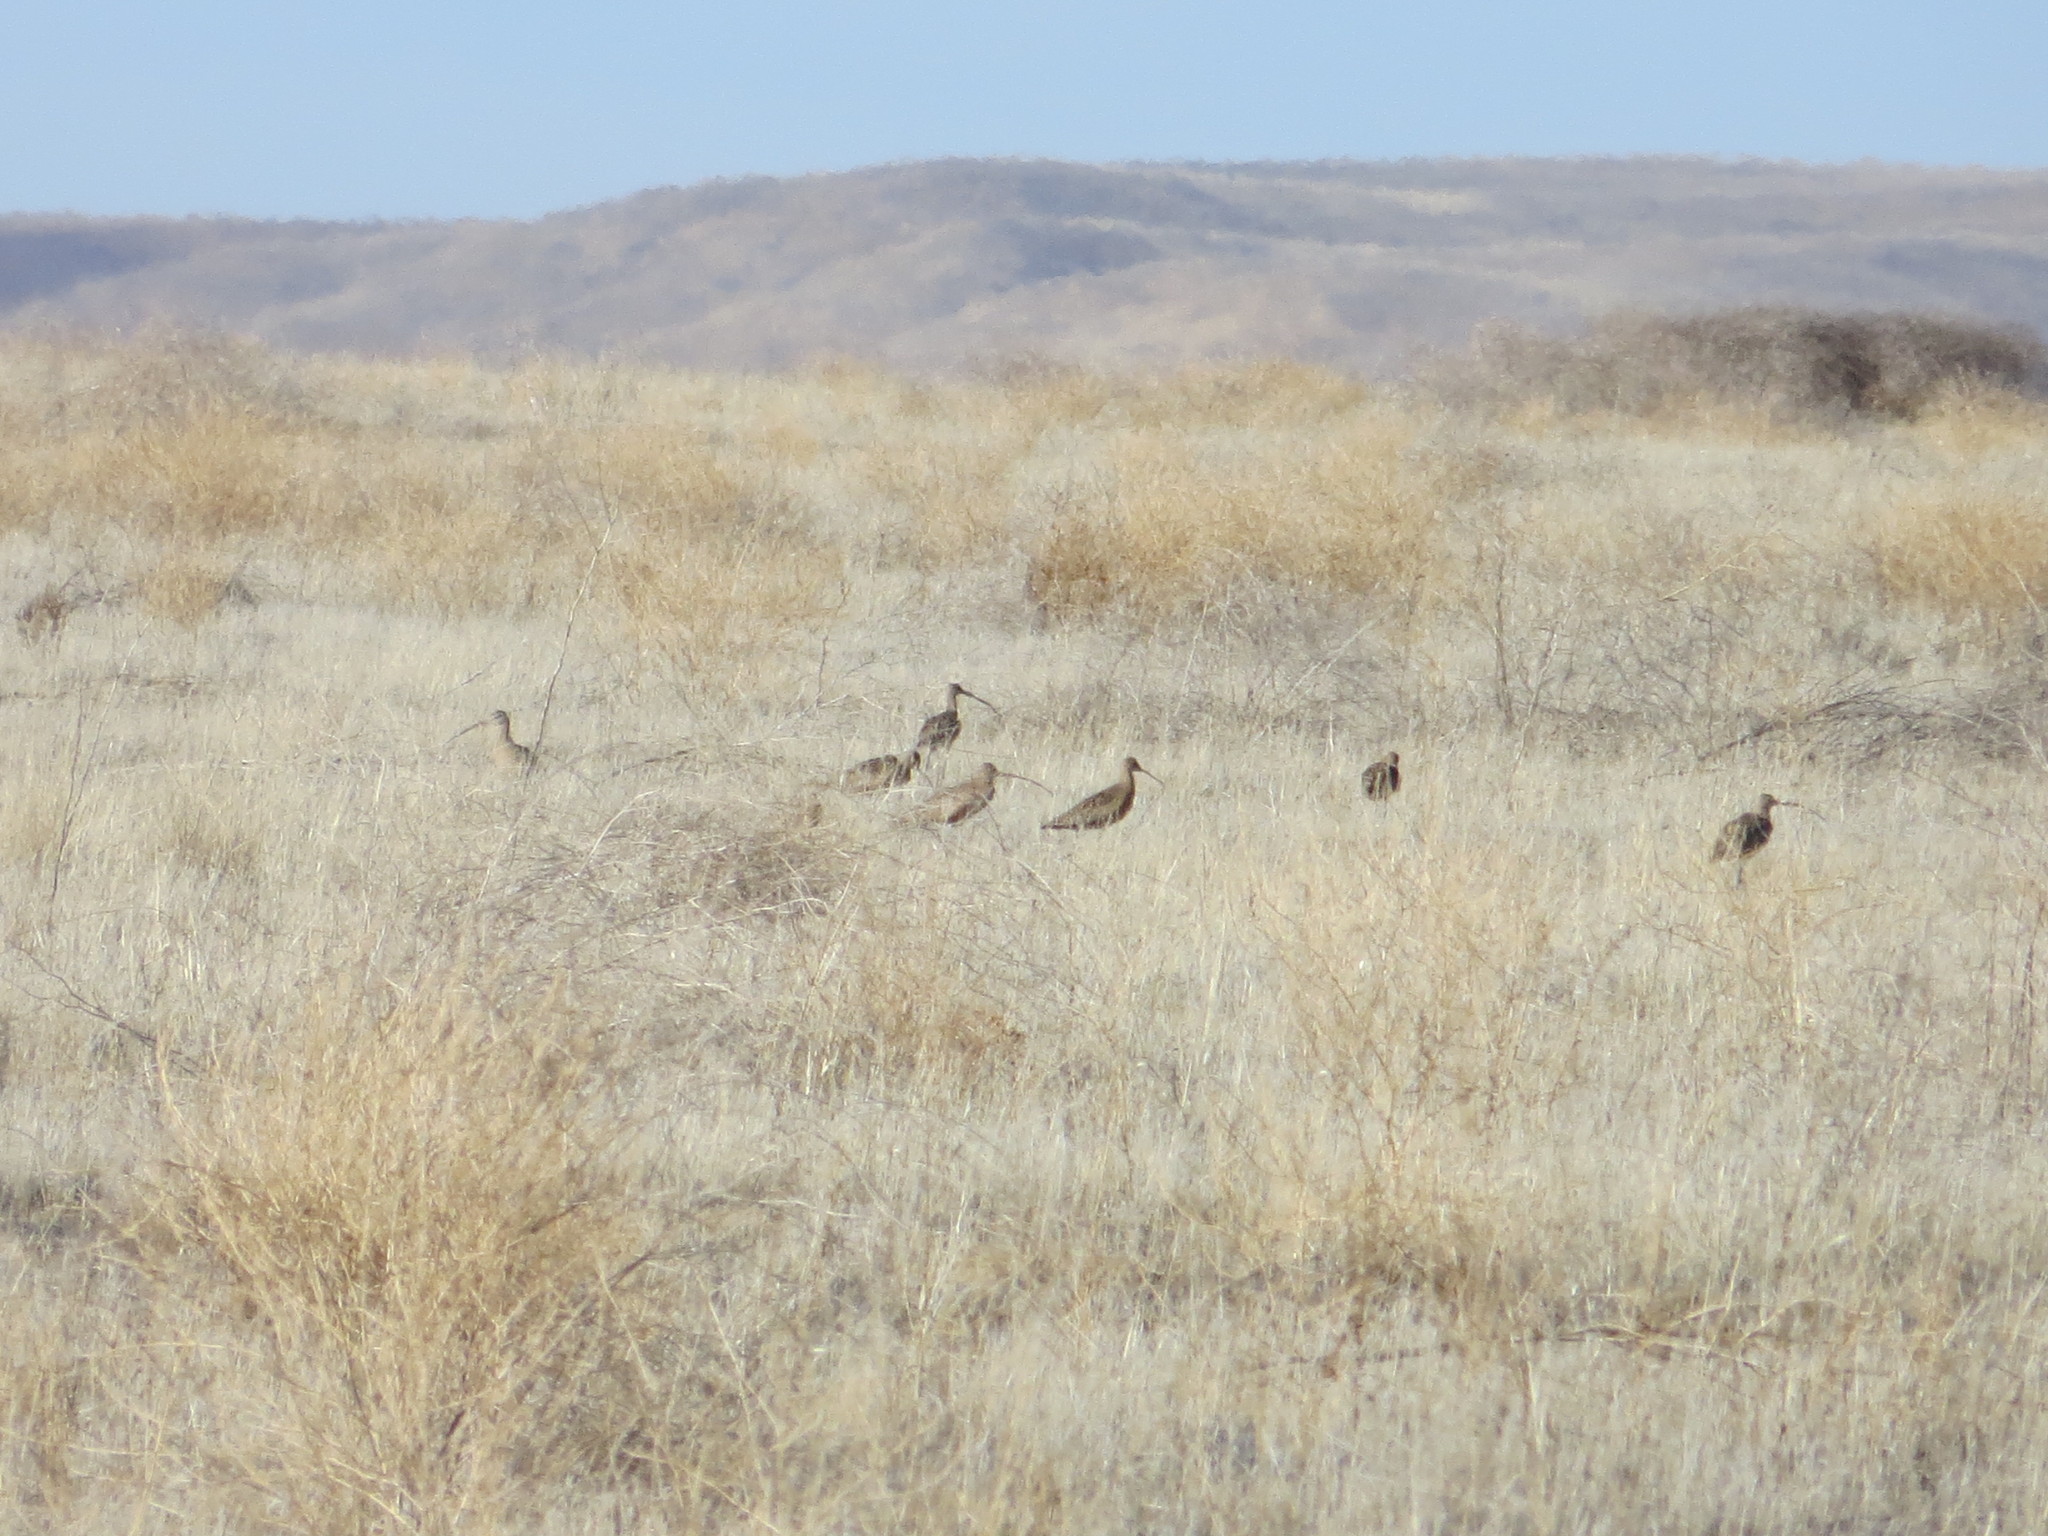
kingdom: Animalia
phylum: Chordata
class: Aves
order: Charadriiformes
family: Scolopacidae
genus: Numenius
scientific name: Numenius americanus
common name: Long-billed curlew
